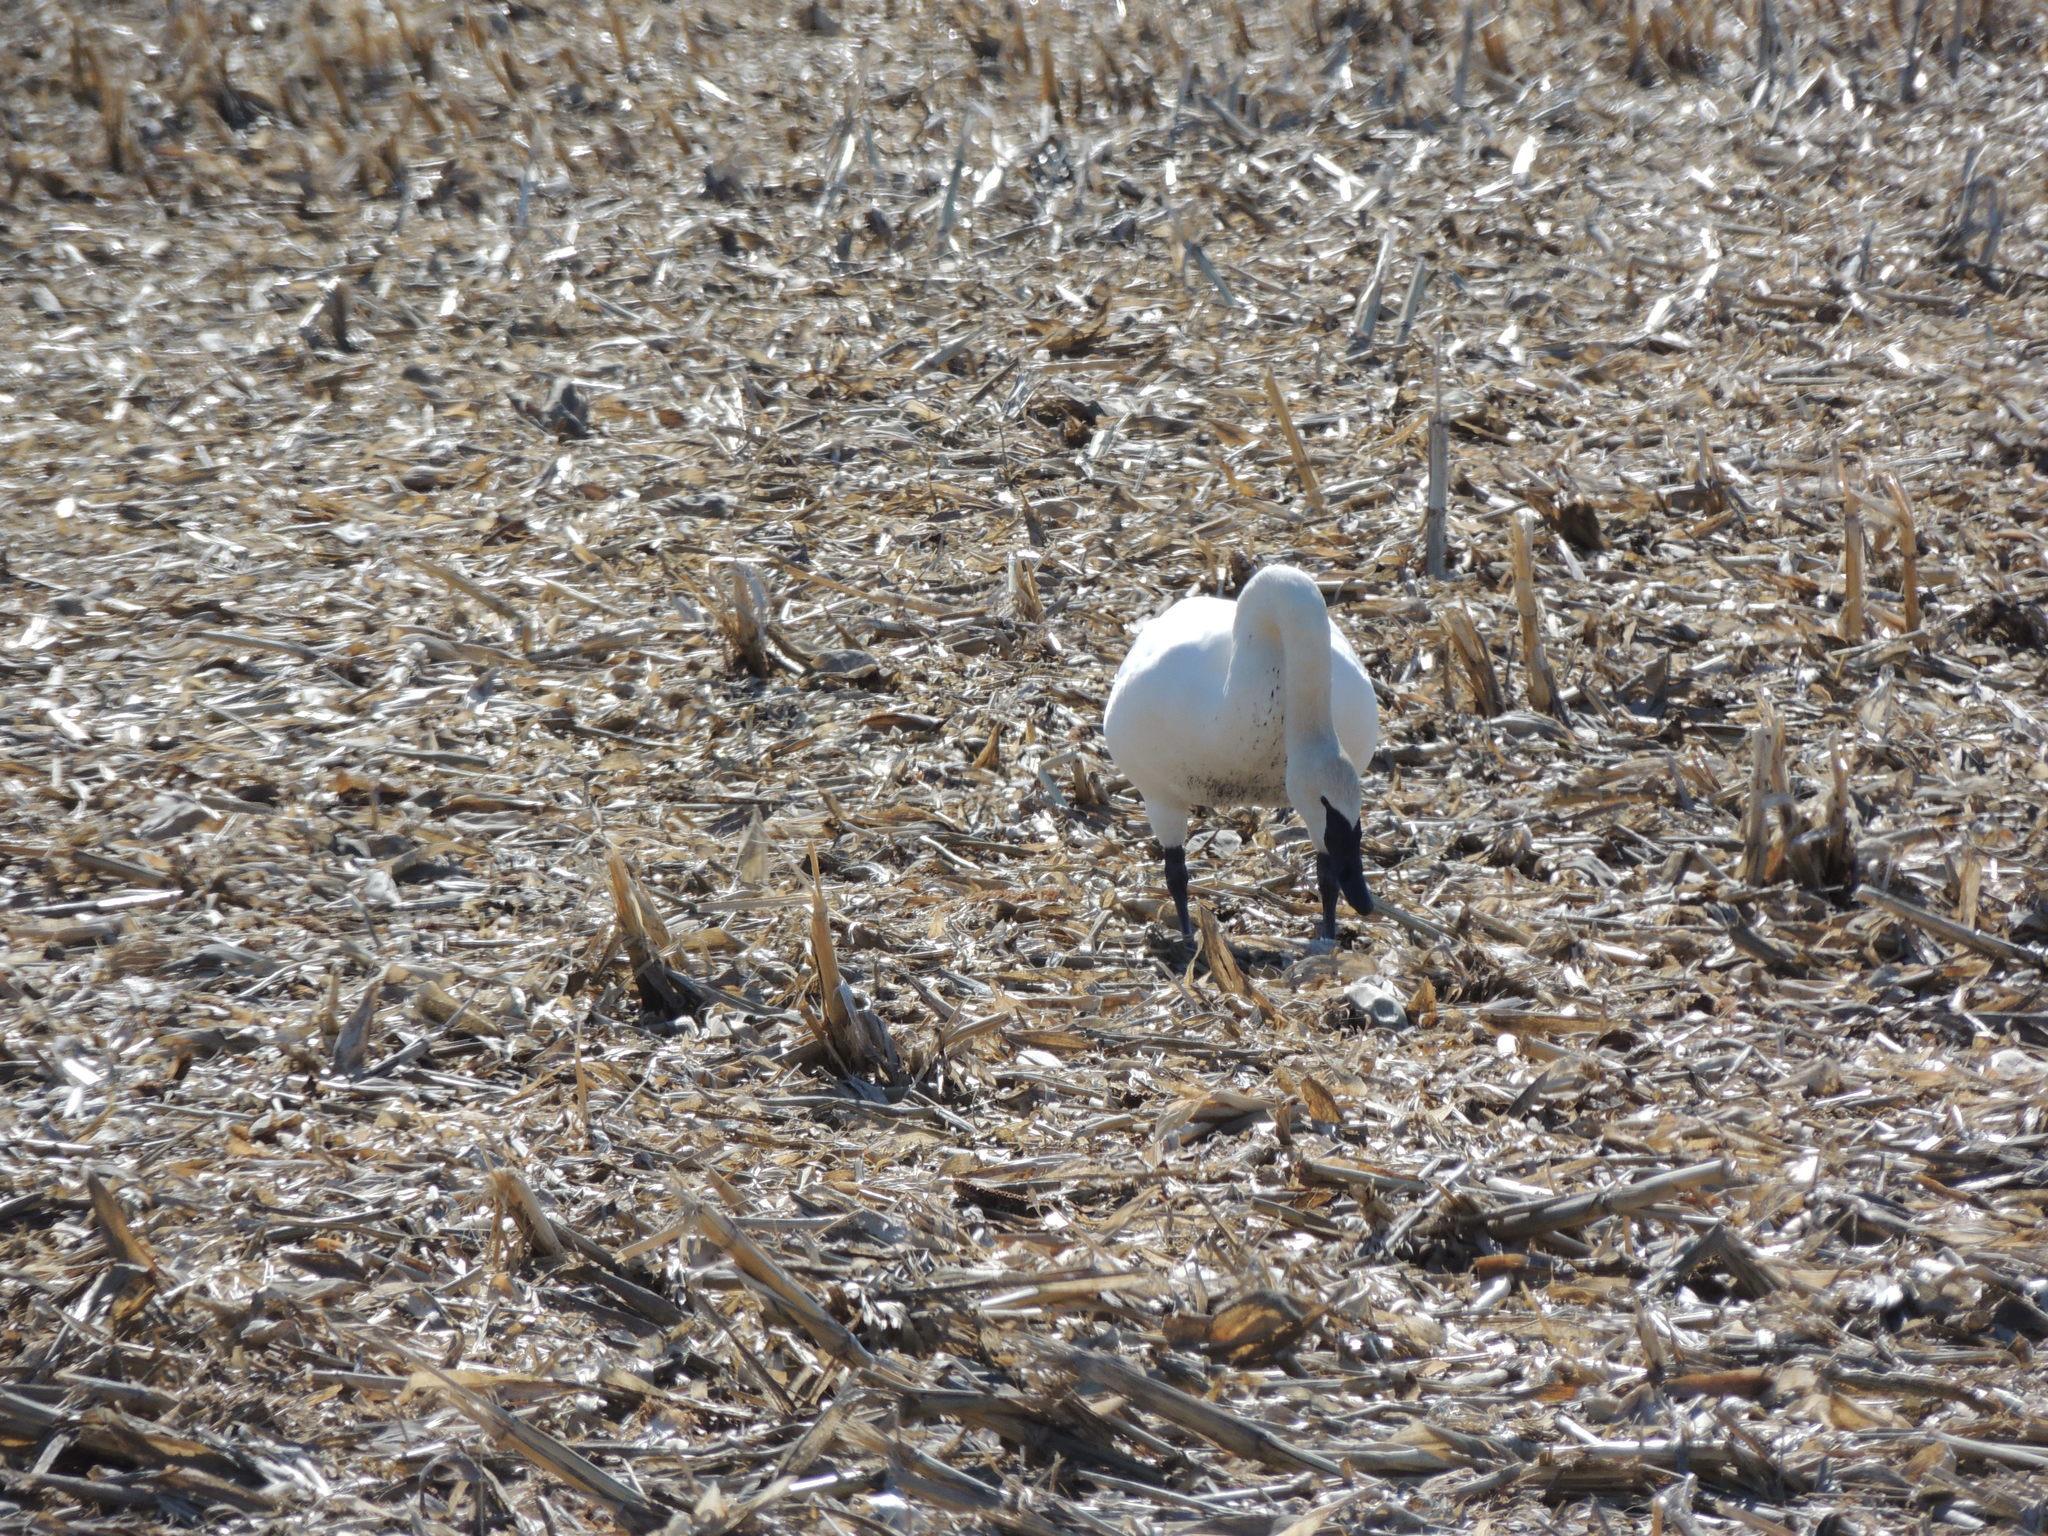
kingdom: Animalia
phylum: Chordata
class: Aves
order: Anseriformes
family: Anatidae
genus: Cygnus
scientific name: Cygnus buccinator
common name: Trumpeter swan
